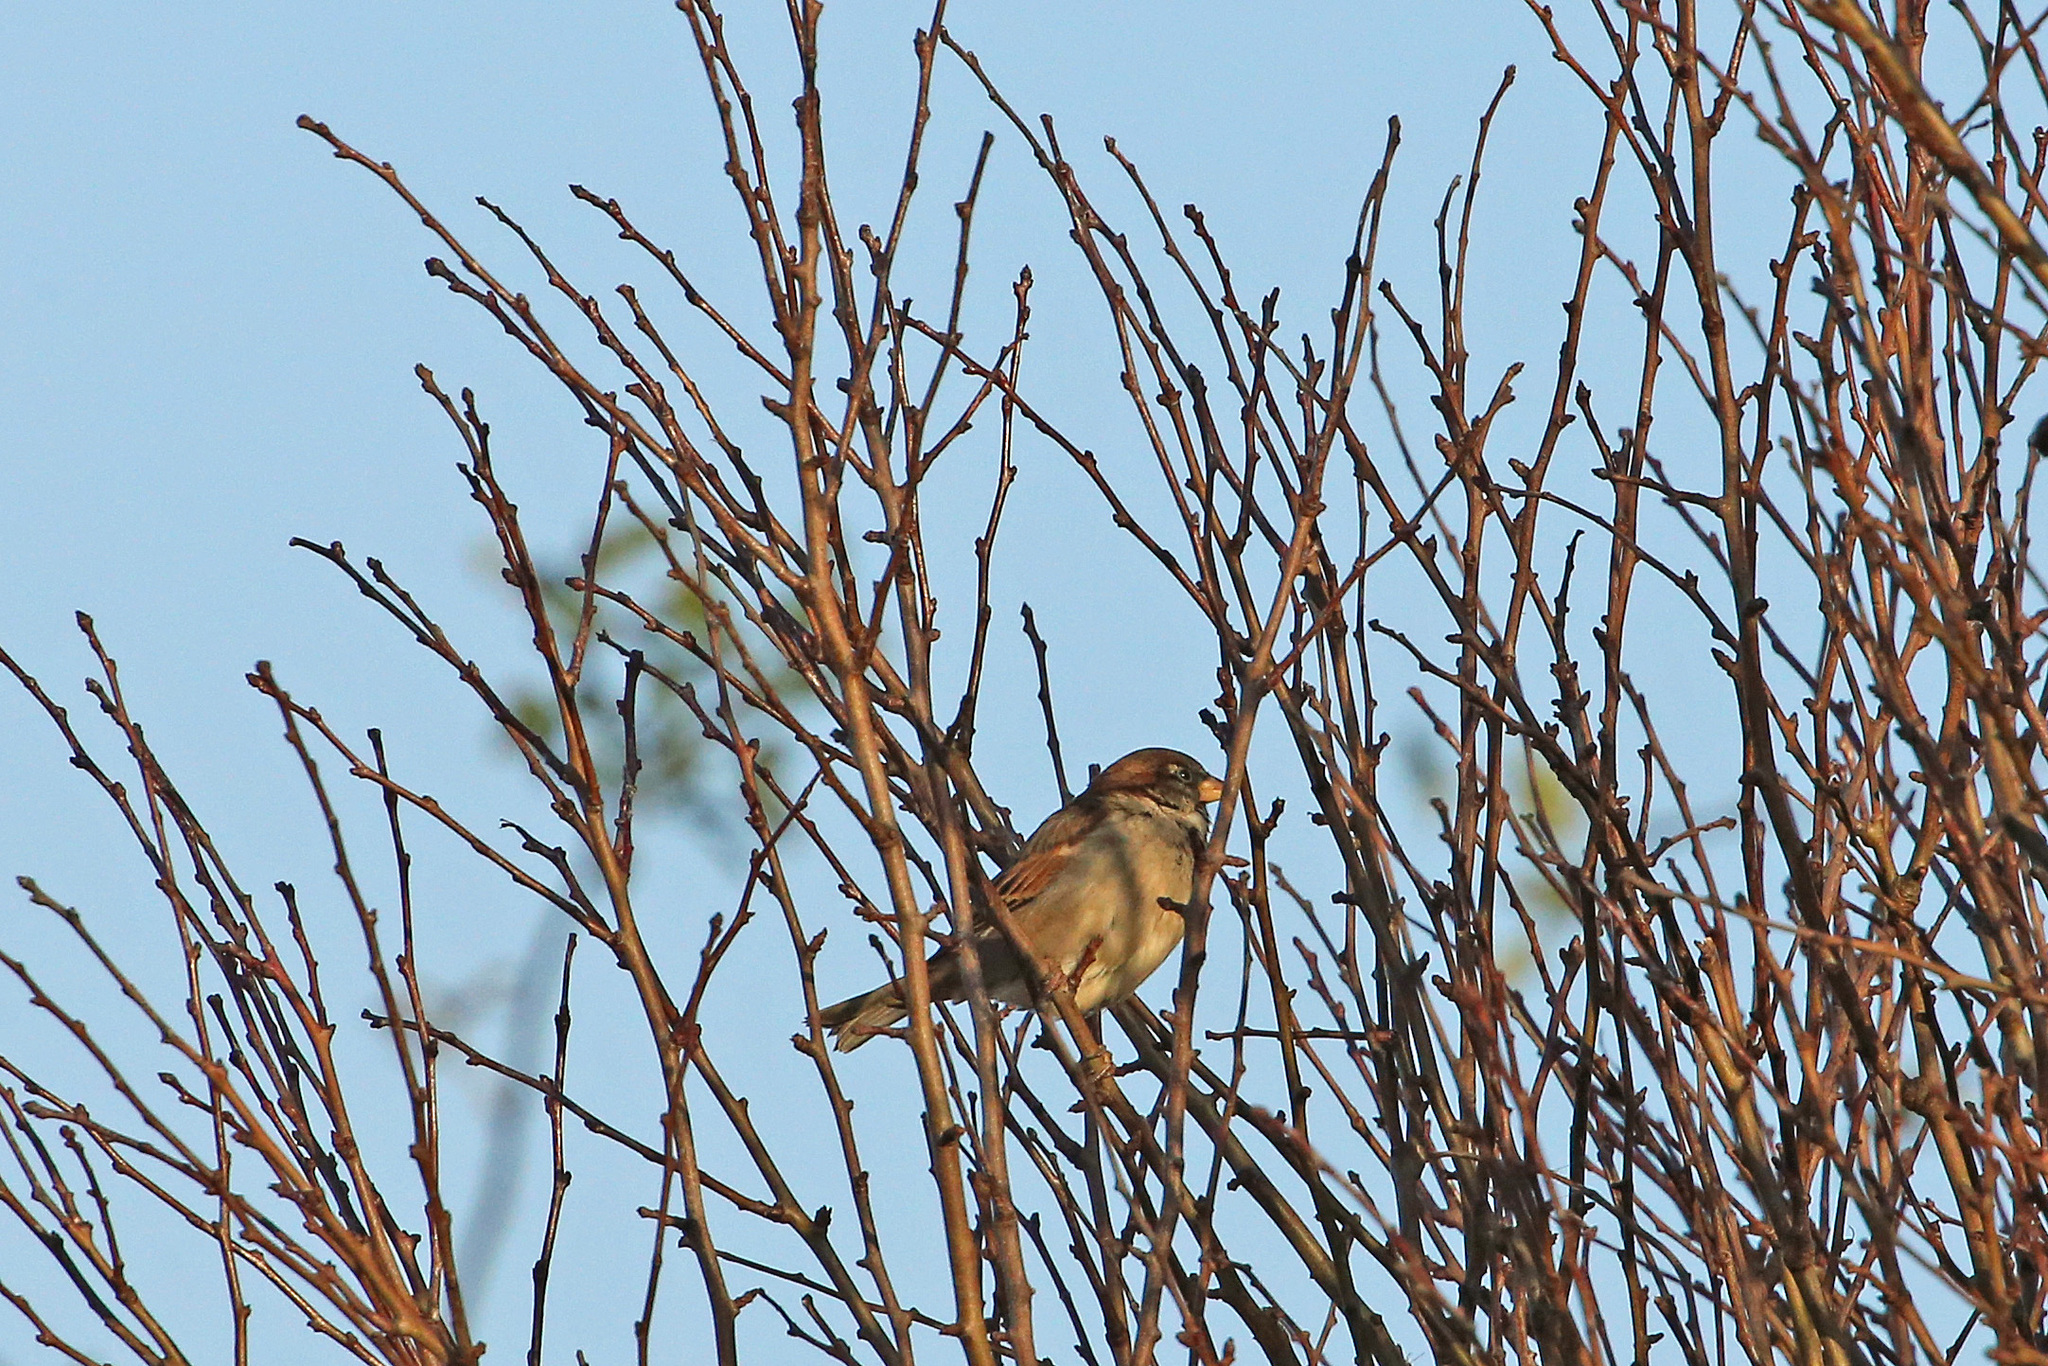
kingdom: Animalia
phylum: Chordata
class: Aves
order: Passeriformes
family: Passeridae
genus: Passer
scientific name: Passer domesticus
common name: House sparrow
